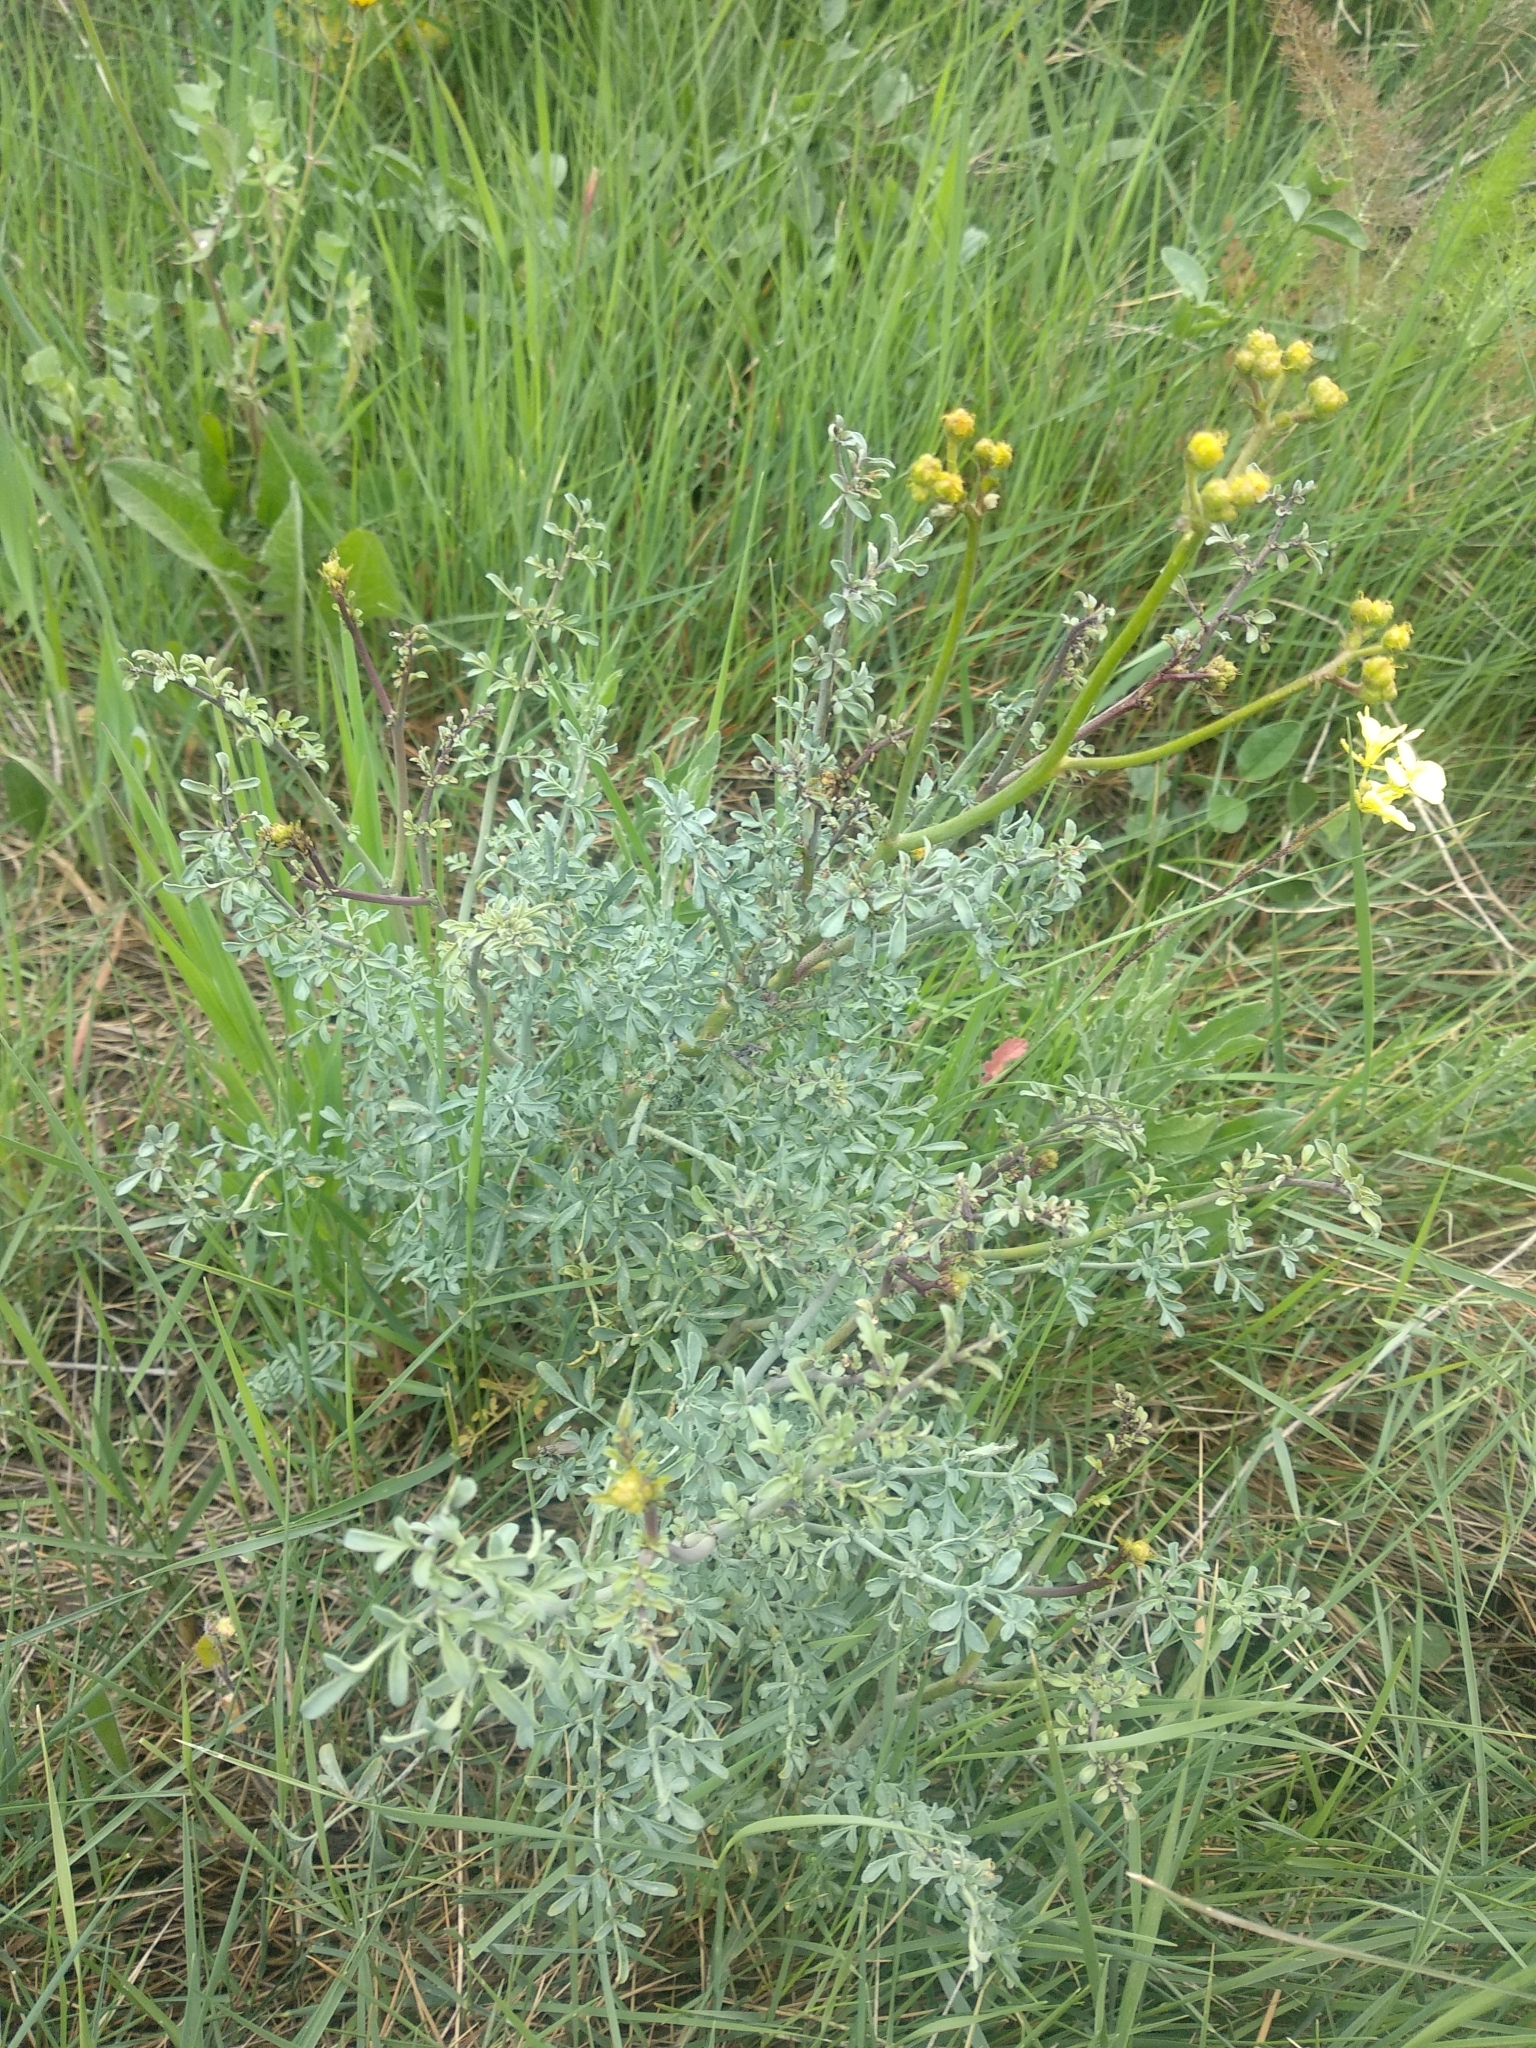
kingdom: Plantae
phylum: Tracheophyta
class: Magnoliopsida
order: Sapindales
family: Rutaceae
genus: Ruta
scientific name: Ruta angustifolia
